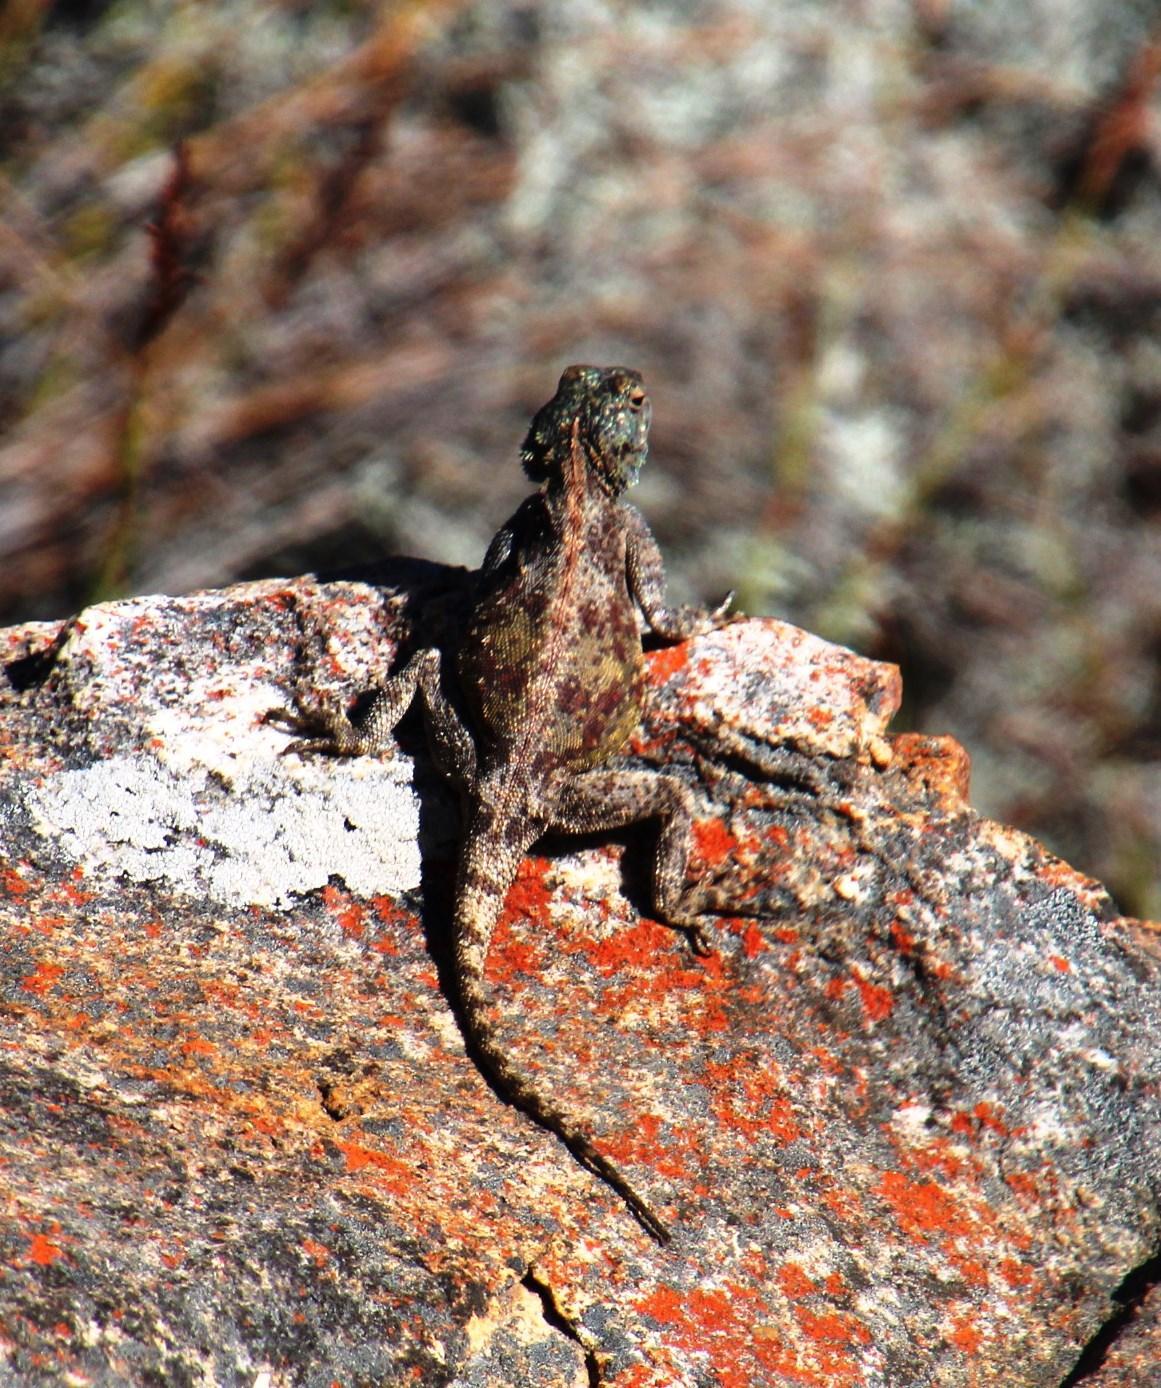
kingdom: Animalia
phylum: Chordata
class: Squamata
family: Agamidae
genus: Agama
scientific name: Agama atra
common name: Southern african rock agama
